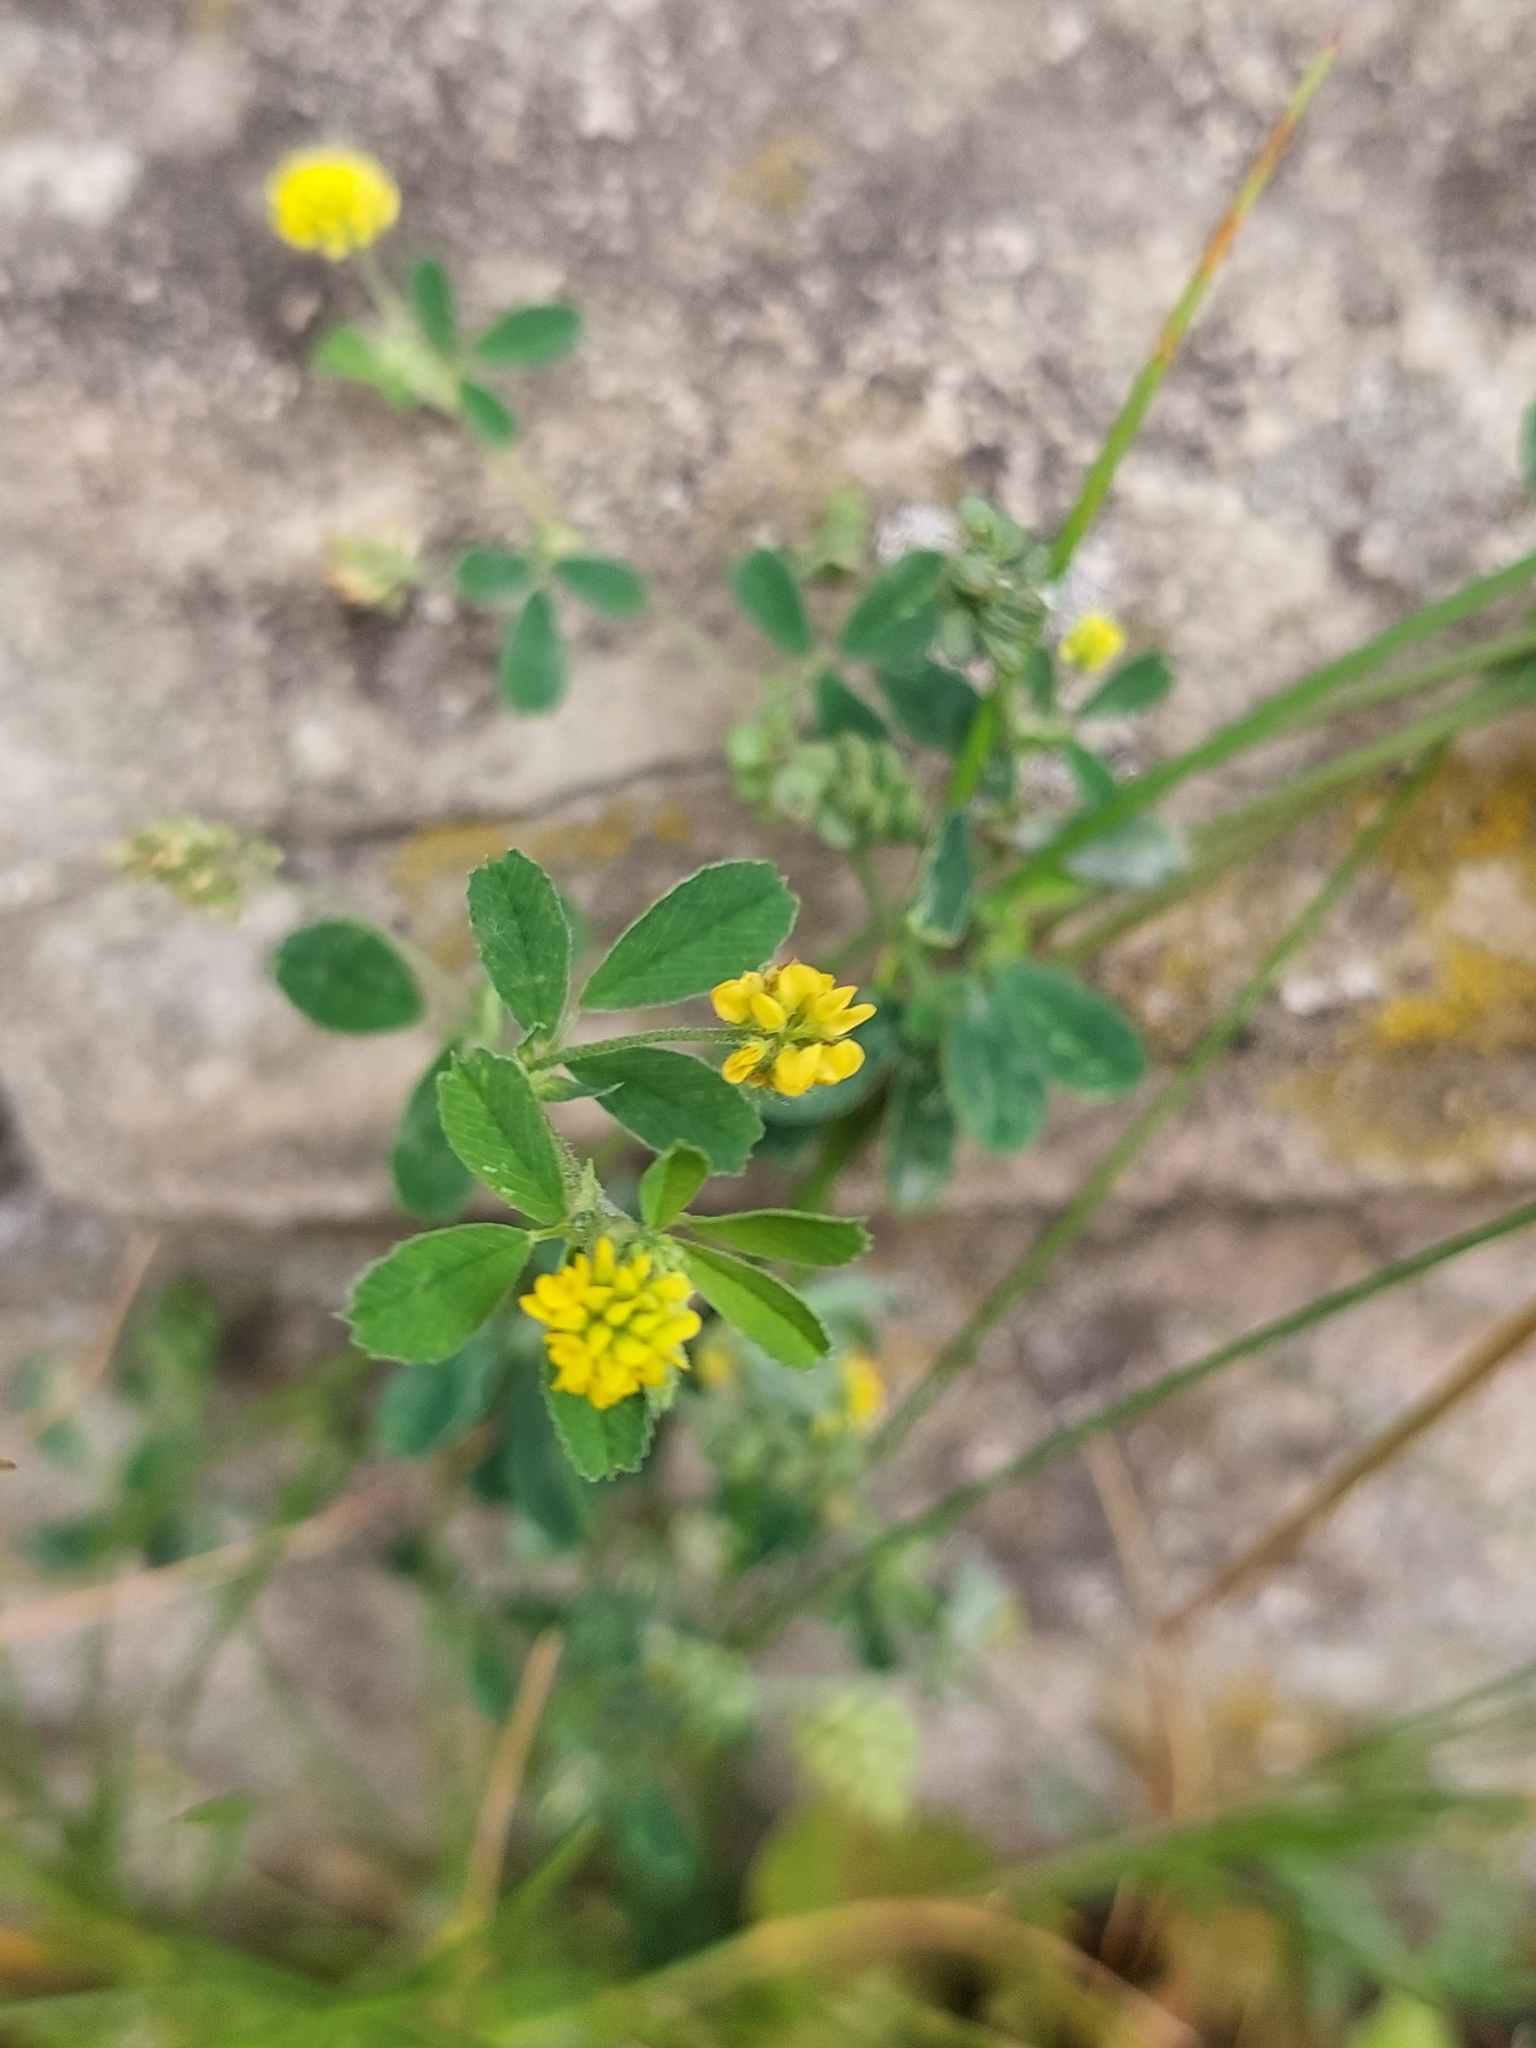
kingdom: Plantae
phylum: Tracheophyta
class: Magnoliopsida
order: Fabales
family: Fabaceae
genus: Medicago
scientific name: Medicago lupulina
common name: Black medick
